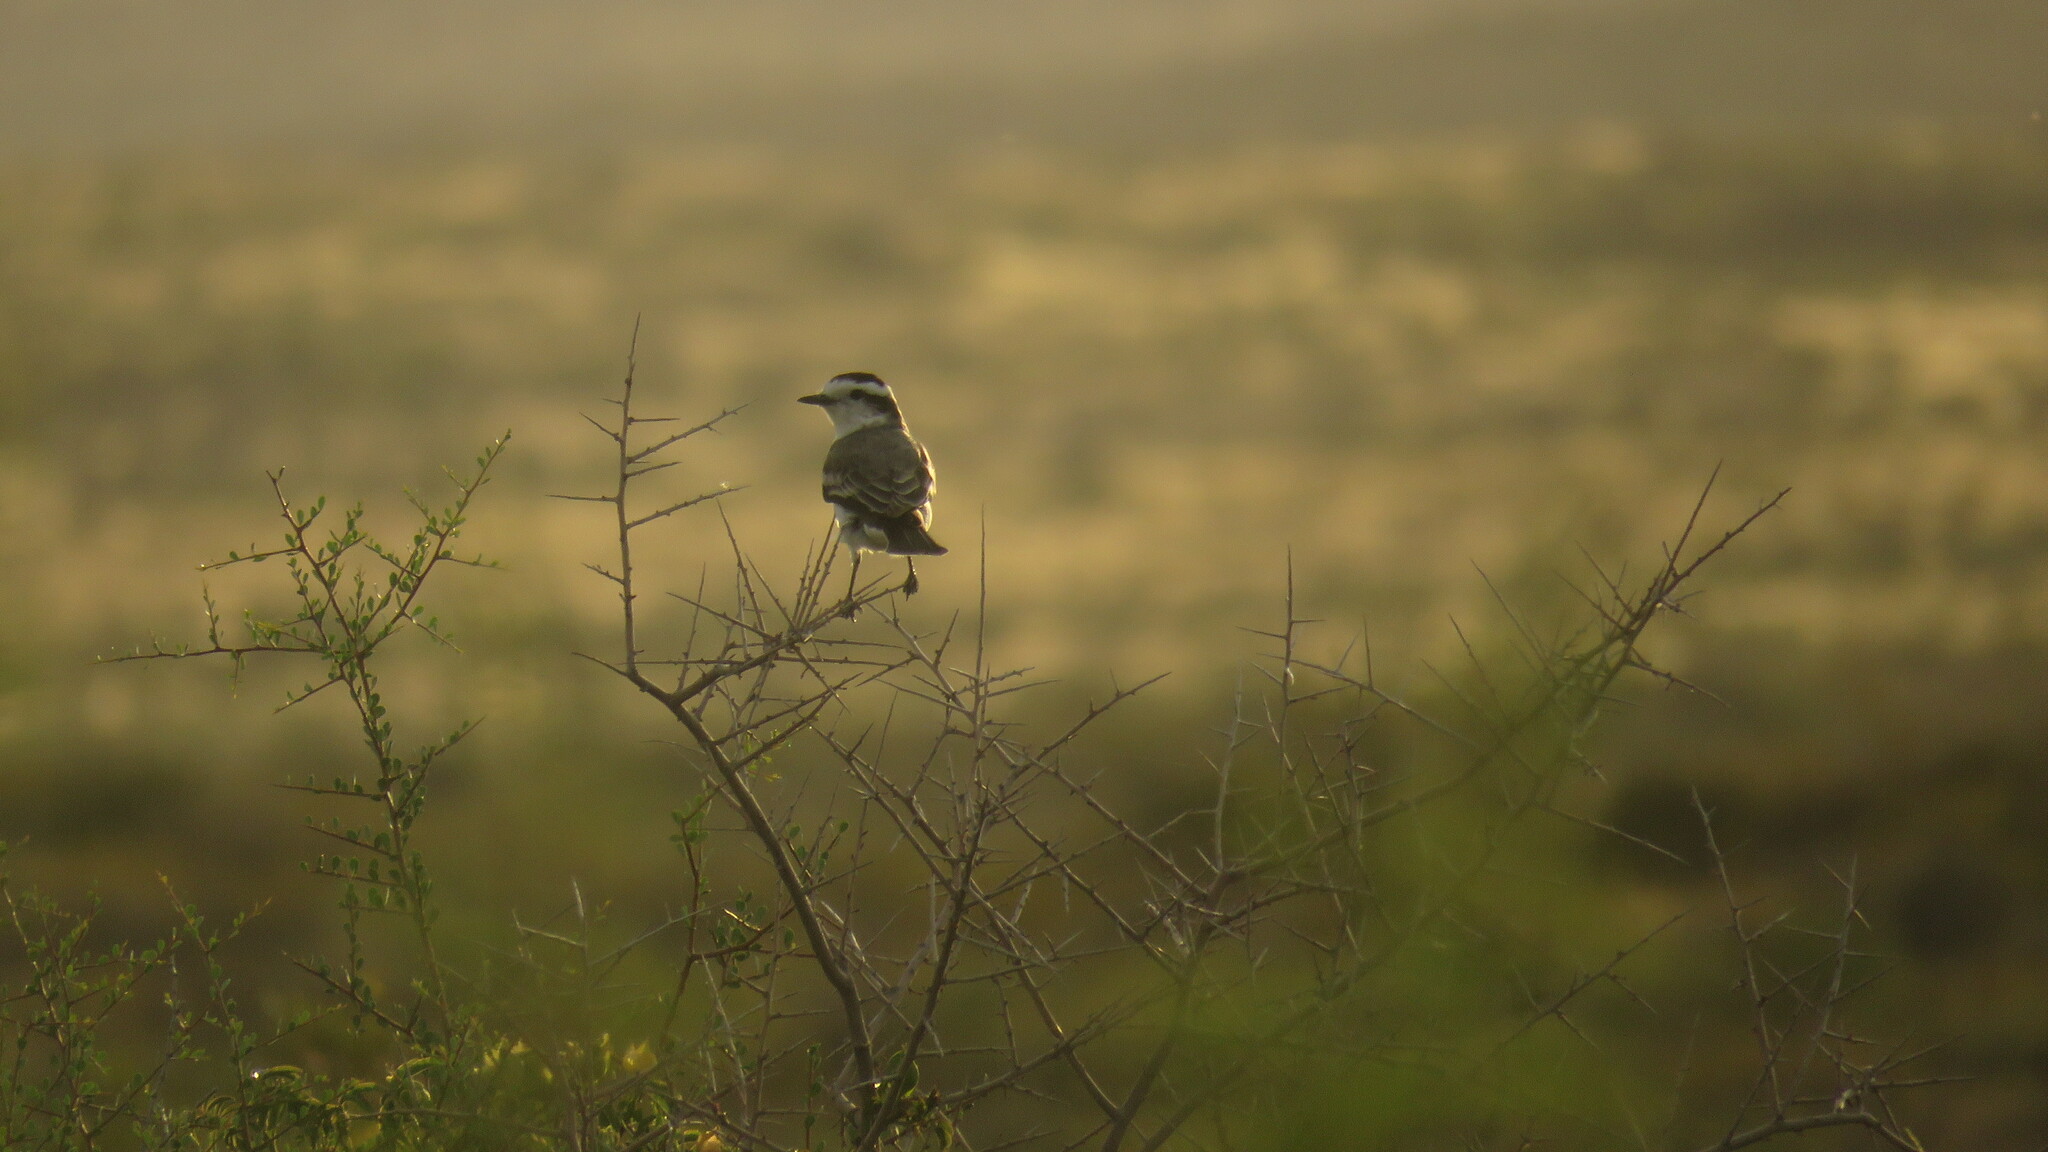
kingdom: Animalia
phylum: Chordata
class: Aves
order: Passeriformes
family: Tyrannidae
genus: Xolmis
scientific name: Xolmis coronatus
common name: Black-crowned monjita
